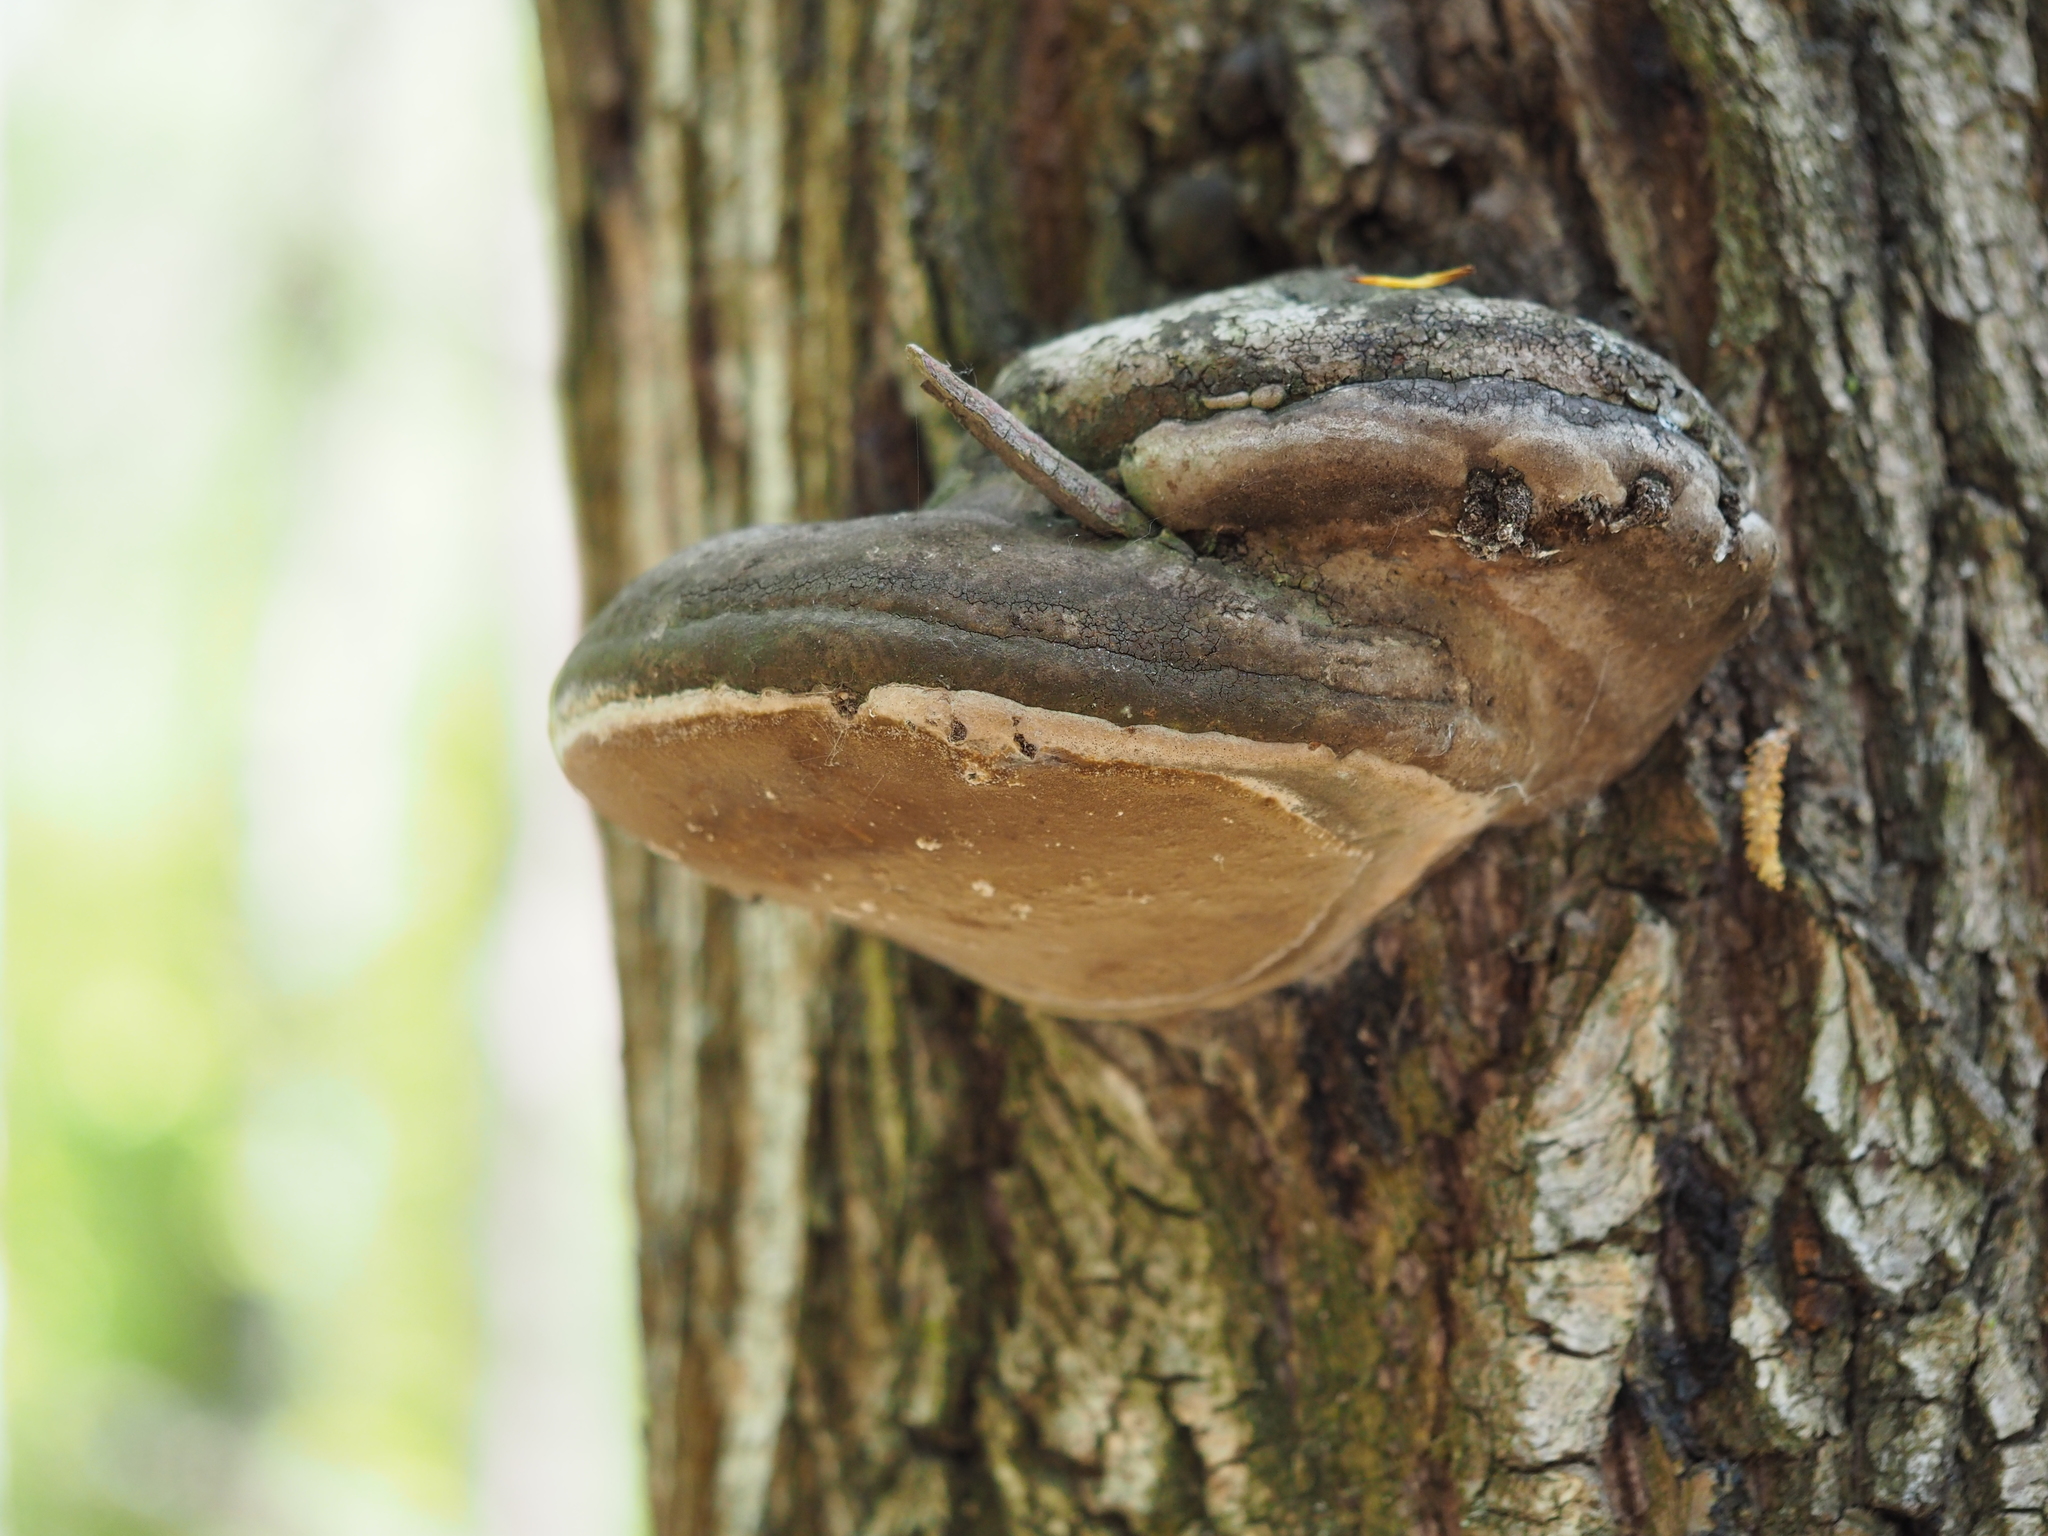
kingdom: Fungi
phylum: Basidiomycota
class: Agaricomycetes
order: Hymenochaetales
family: Hymenochaetaceae
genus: Phellinus
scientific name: Phellinus igniarius
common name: Willow bracket
